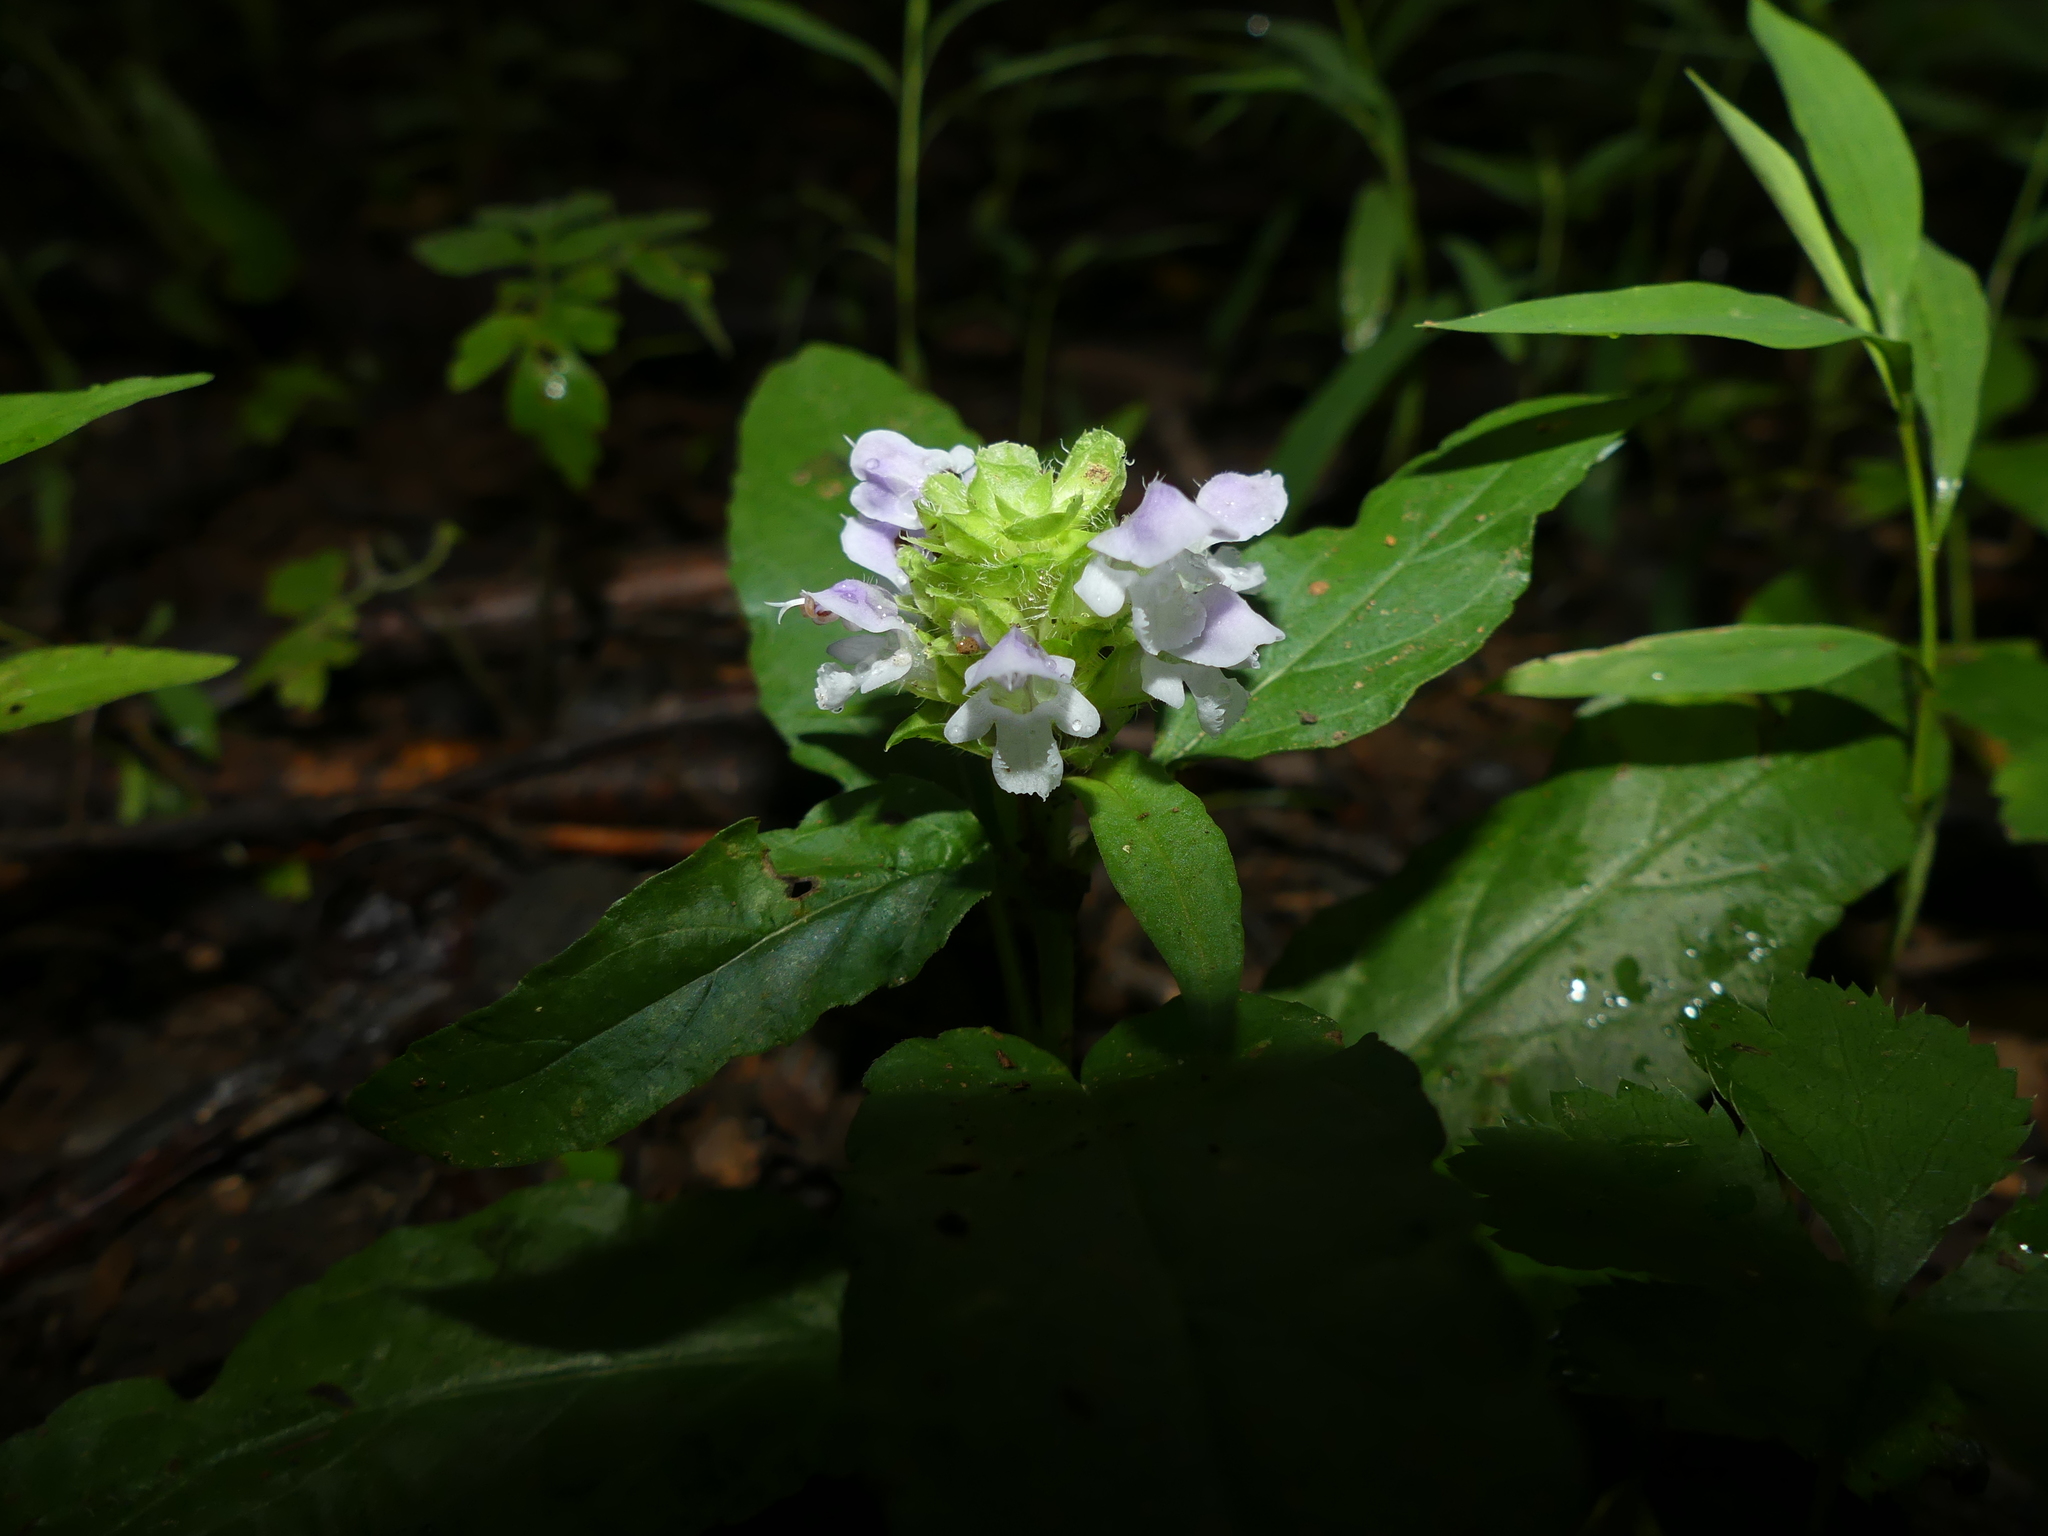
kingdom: Plantae
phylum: Tracheophyta
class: Magnoliopsida
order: Lamiales
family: Lamiaceae
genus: Prunella
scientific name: Prunella vulgaris
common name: Heal-all
